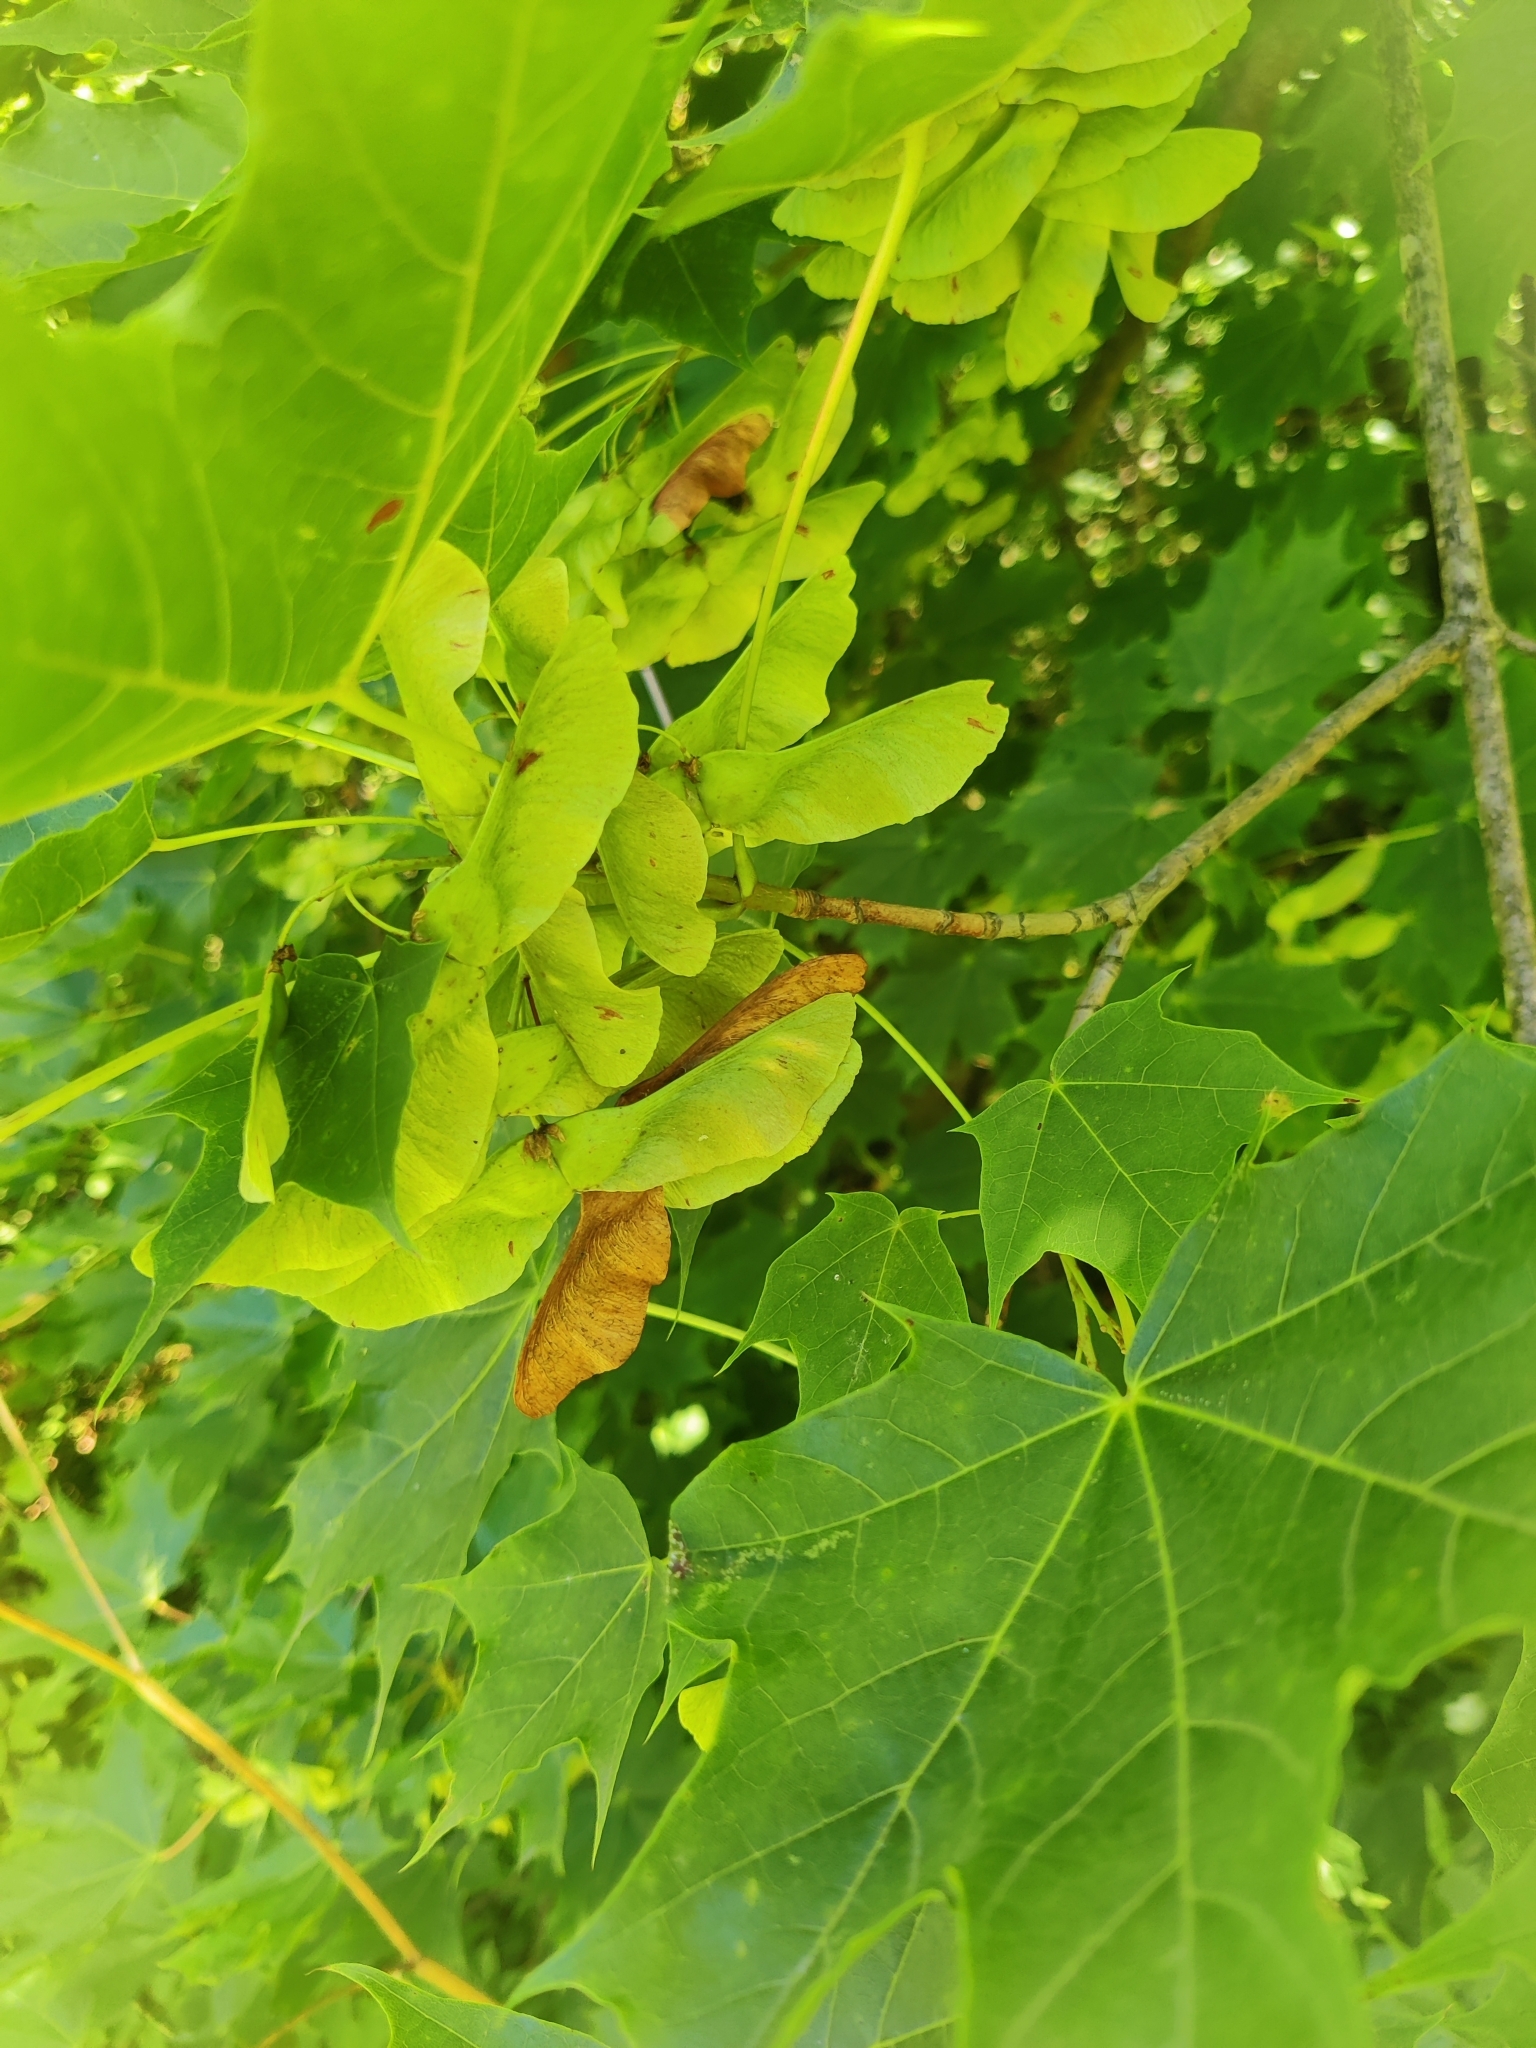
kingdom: Plantae
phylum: Tracheophyta
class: Magnoliopsida
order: Sapindales
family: Sapindaceae
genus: Acer
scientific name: Acer platanoides
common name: Norway maple
